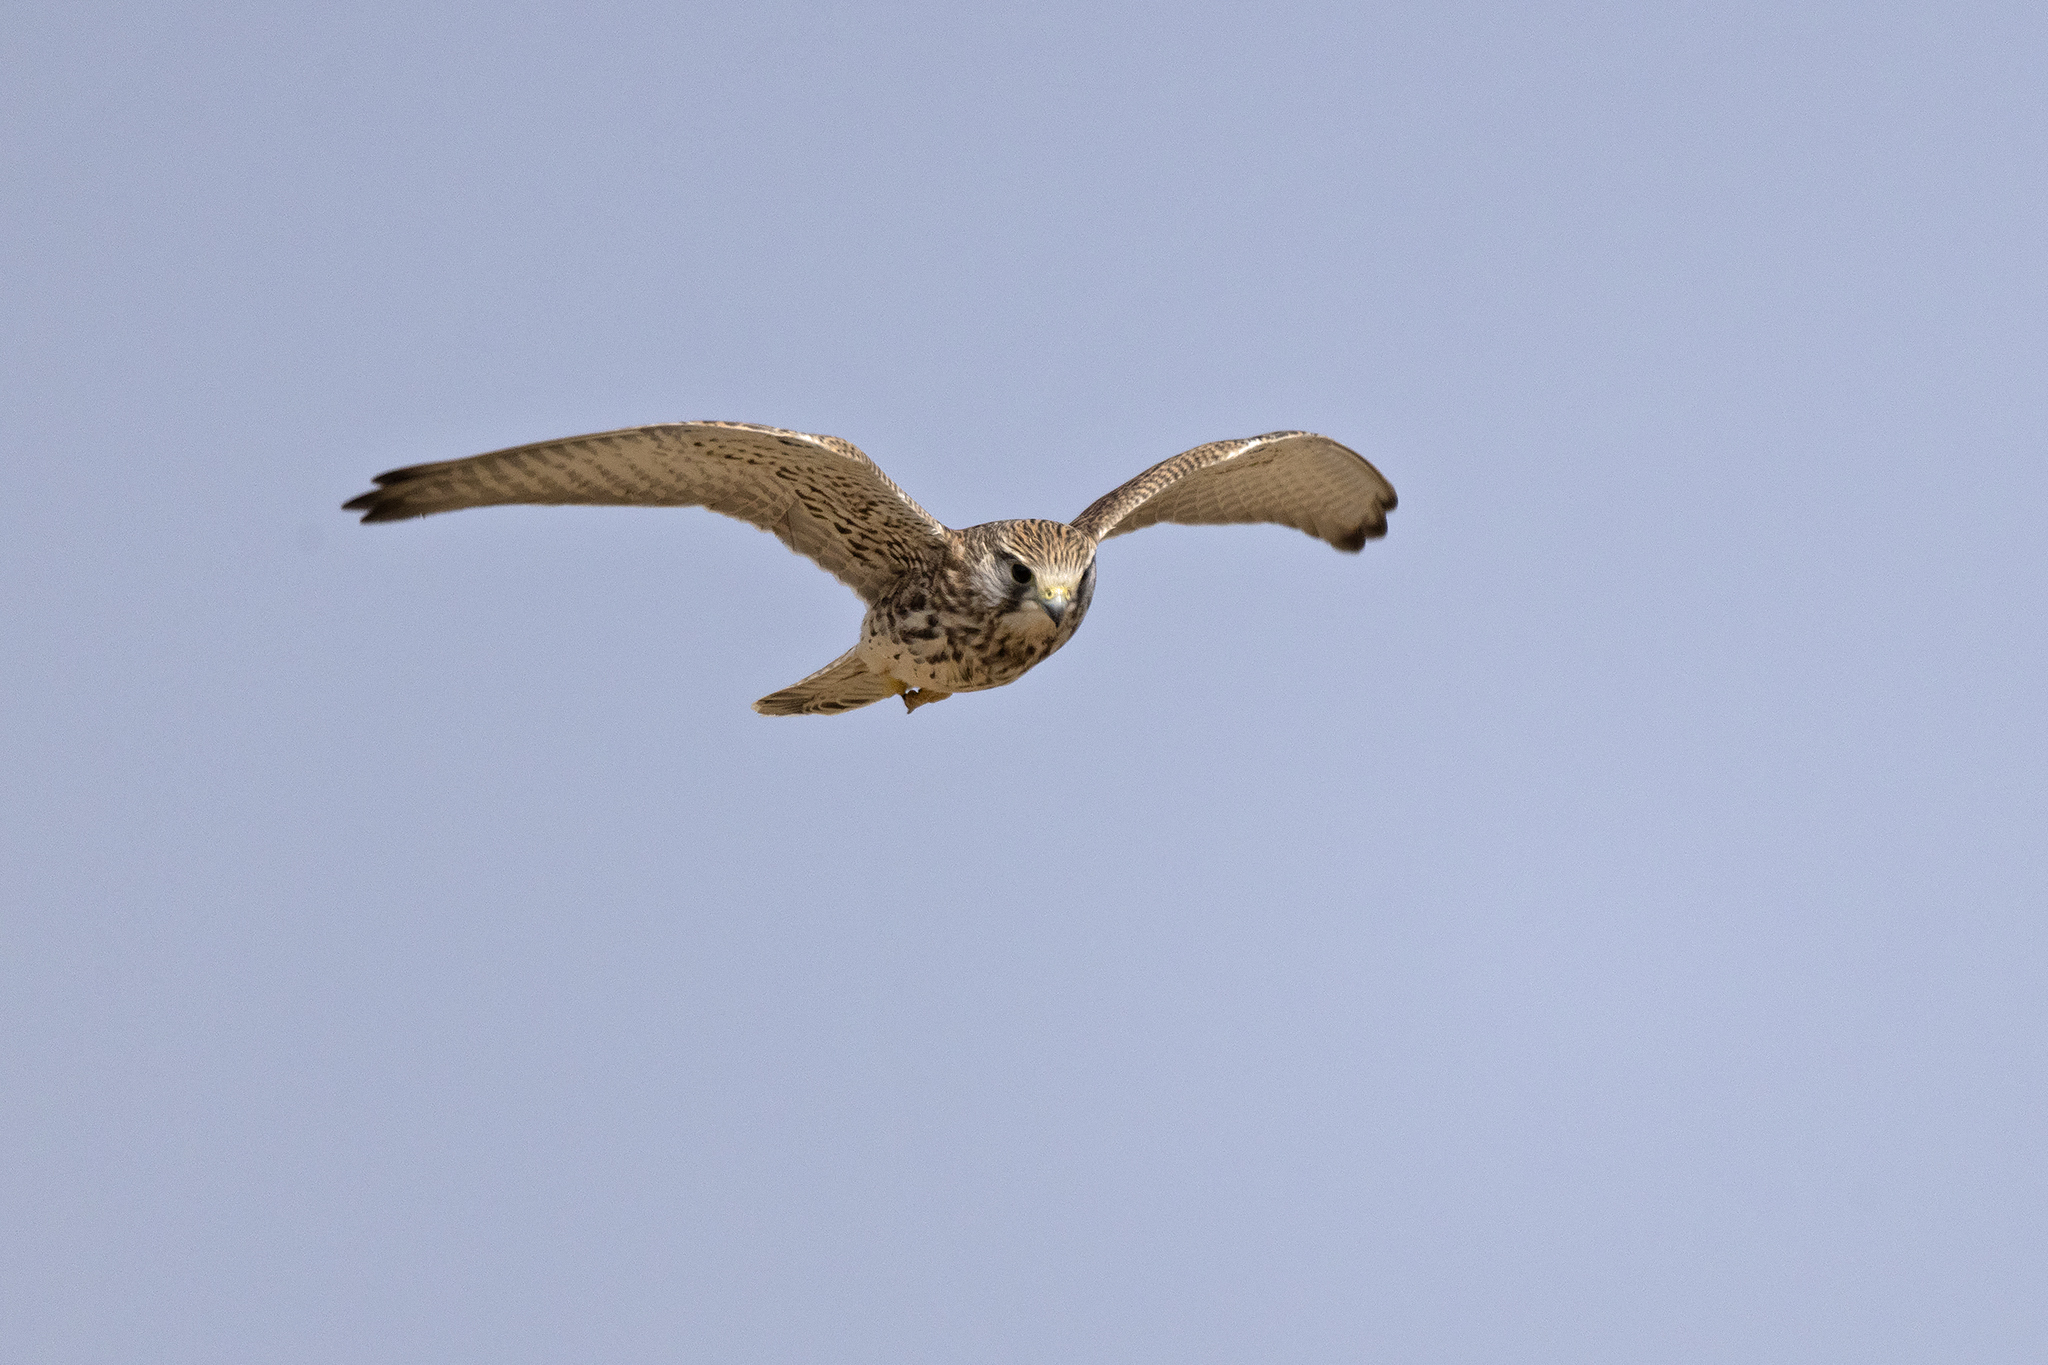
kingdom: Animalia
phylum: Chordata
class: Aves
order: Falconiformes
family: Falconidae
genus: Falco
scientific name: Falco tinnunculus
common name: Common kestrel
